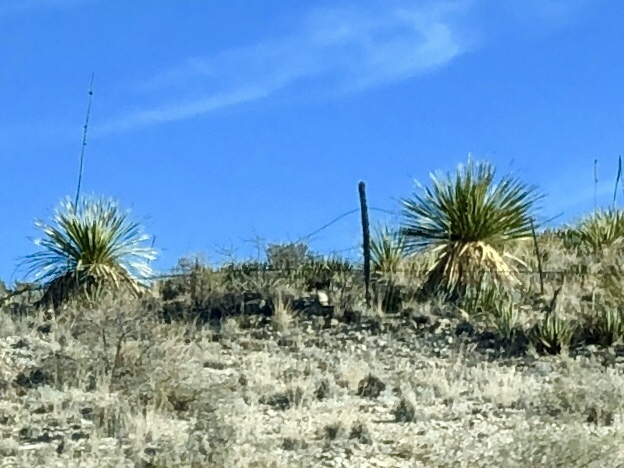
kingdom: Plantae
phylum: Tracheophyta
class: Liliopsida
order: Asparagales
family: Asparagaceae
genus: Dasylirion
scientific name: Dasylirion wheeleri
